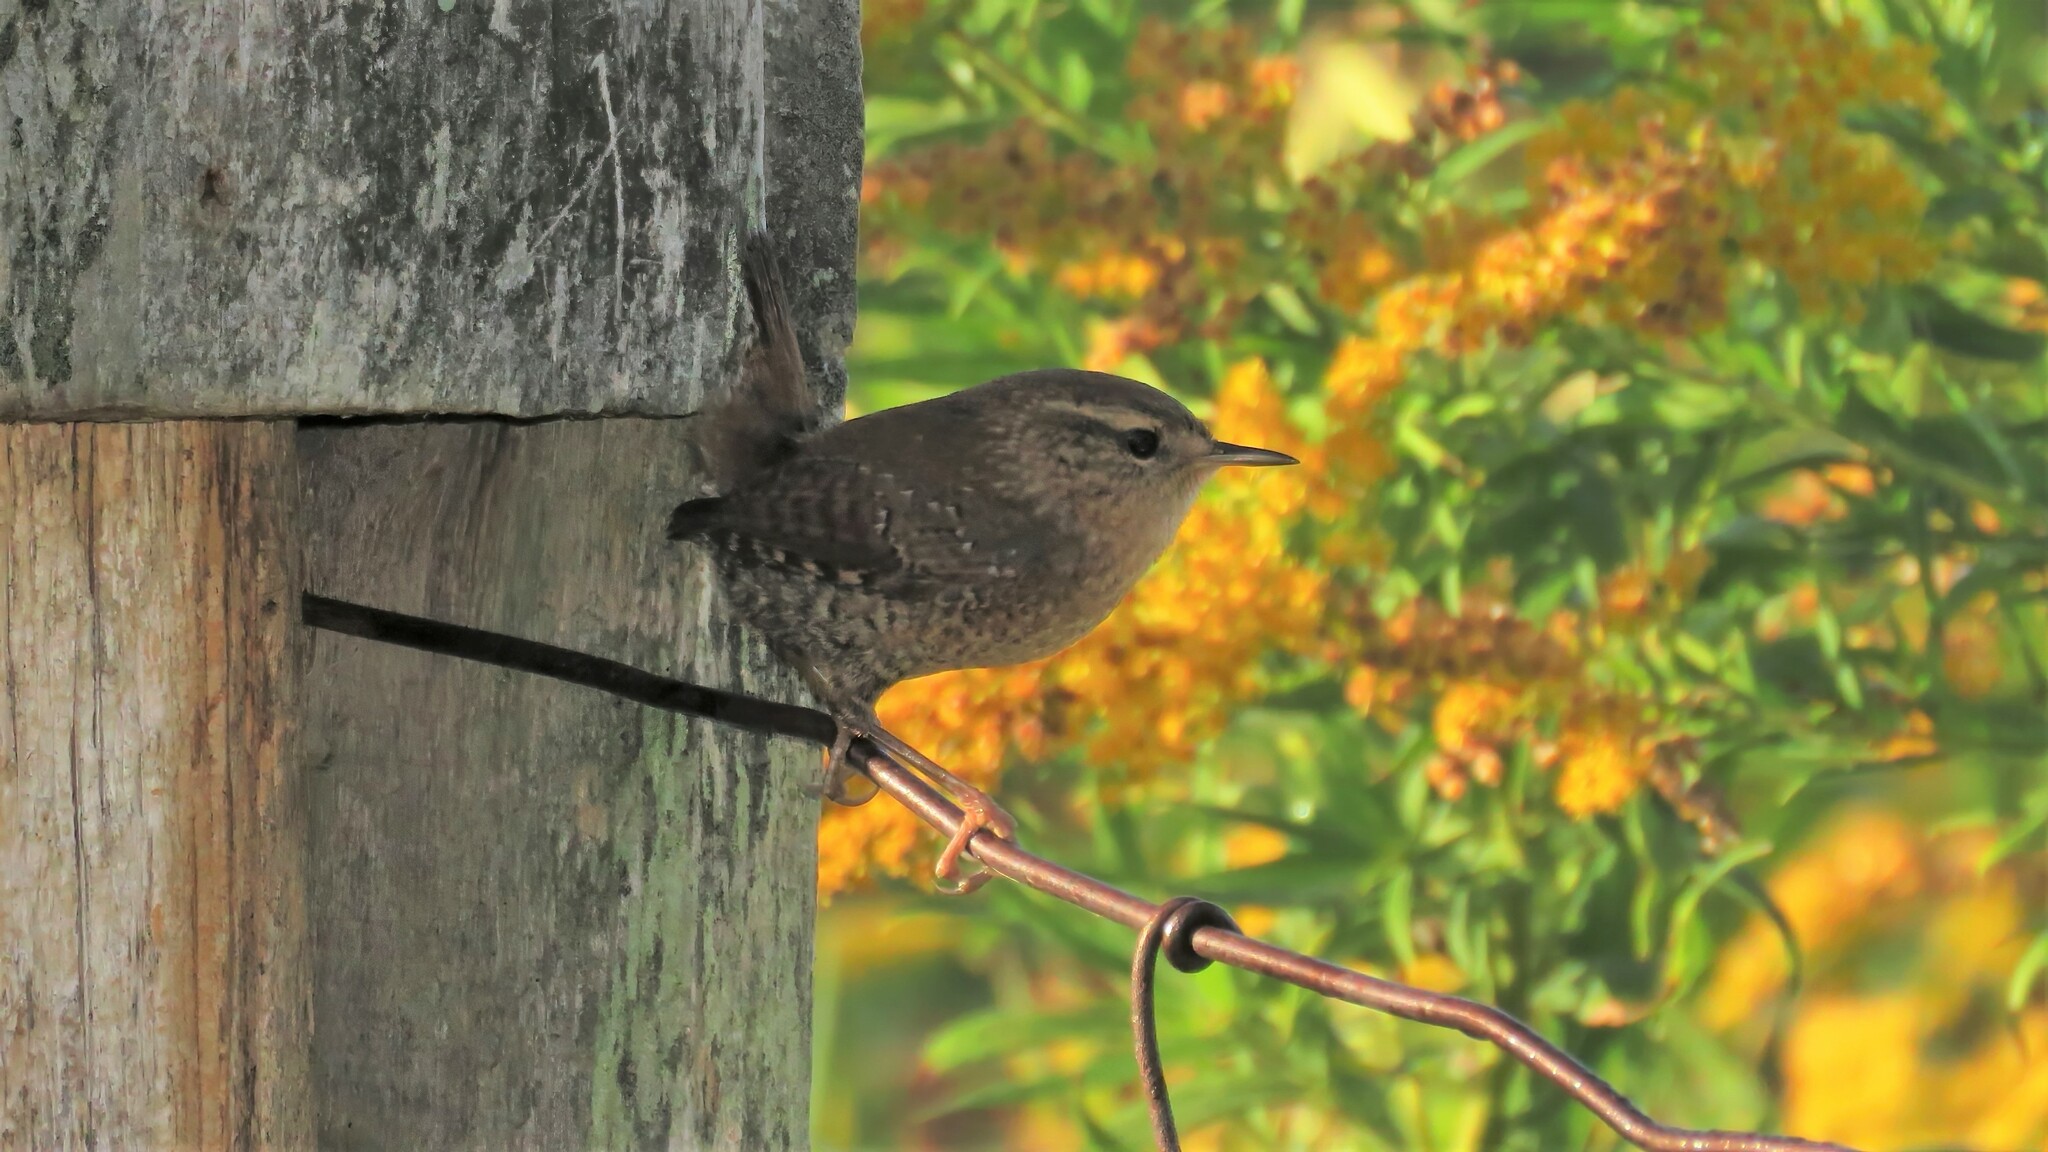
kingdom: Animalia
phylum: Chordata
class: Aves
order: Passeriformes
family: Troglodytidae
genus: Troglodytes
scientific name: Troglodytes hiemalis
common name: Winter wren
